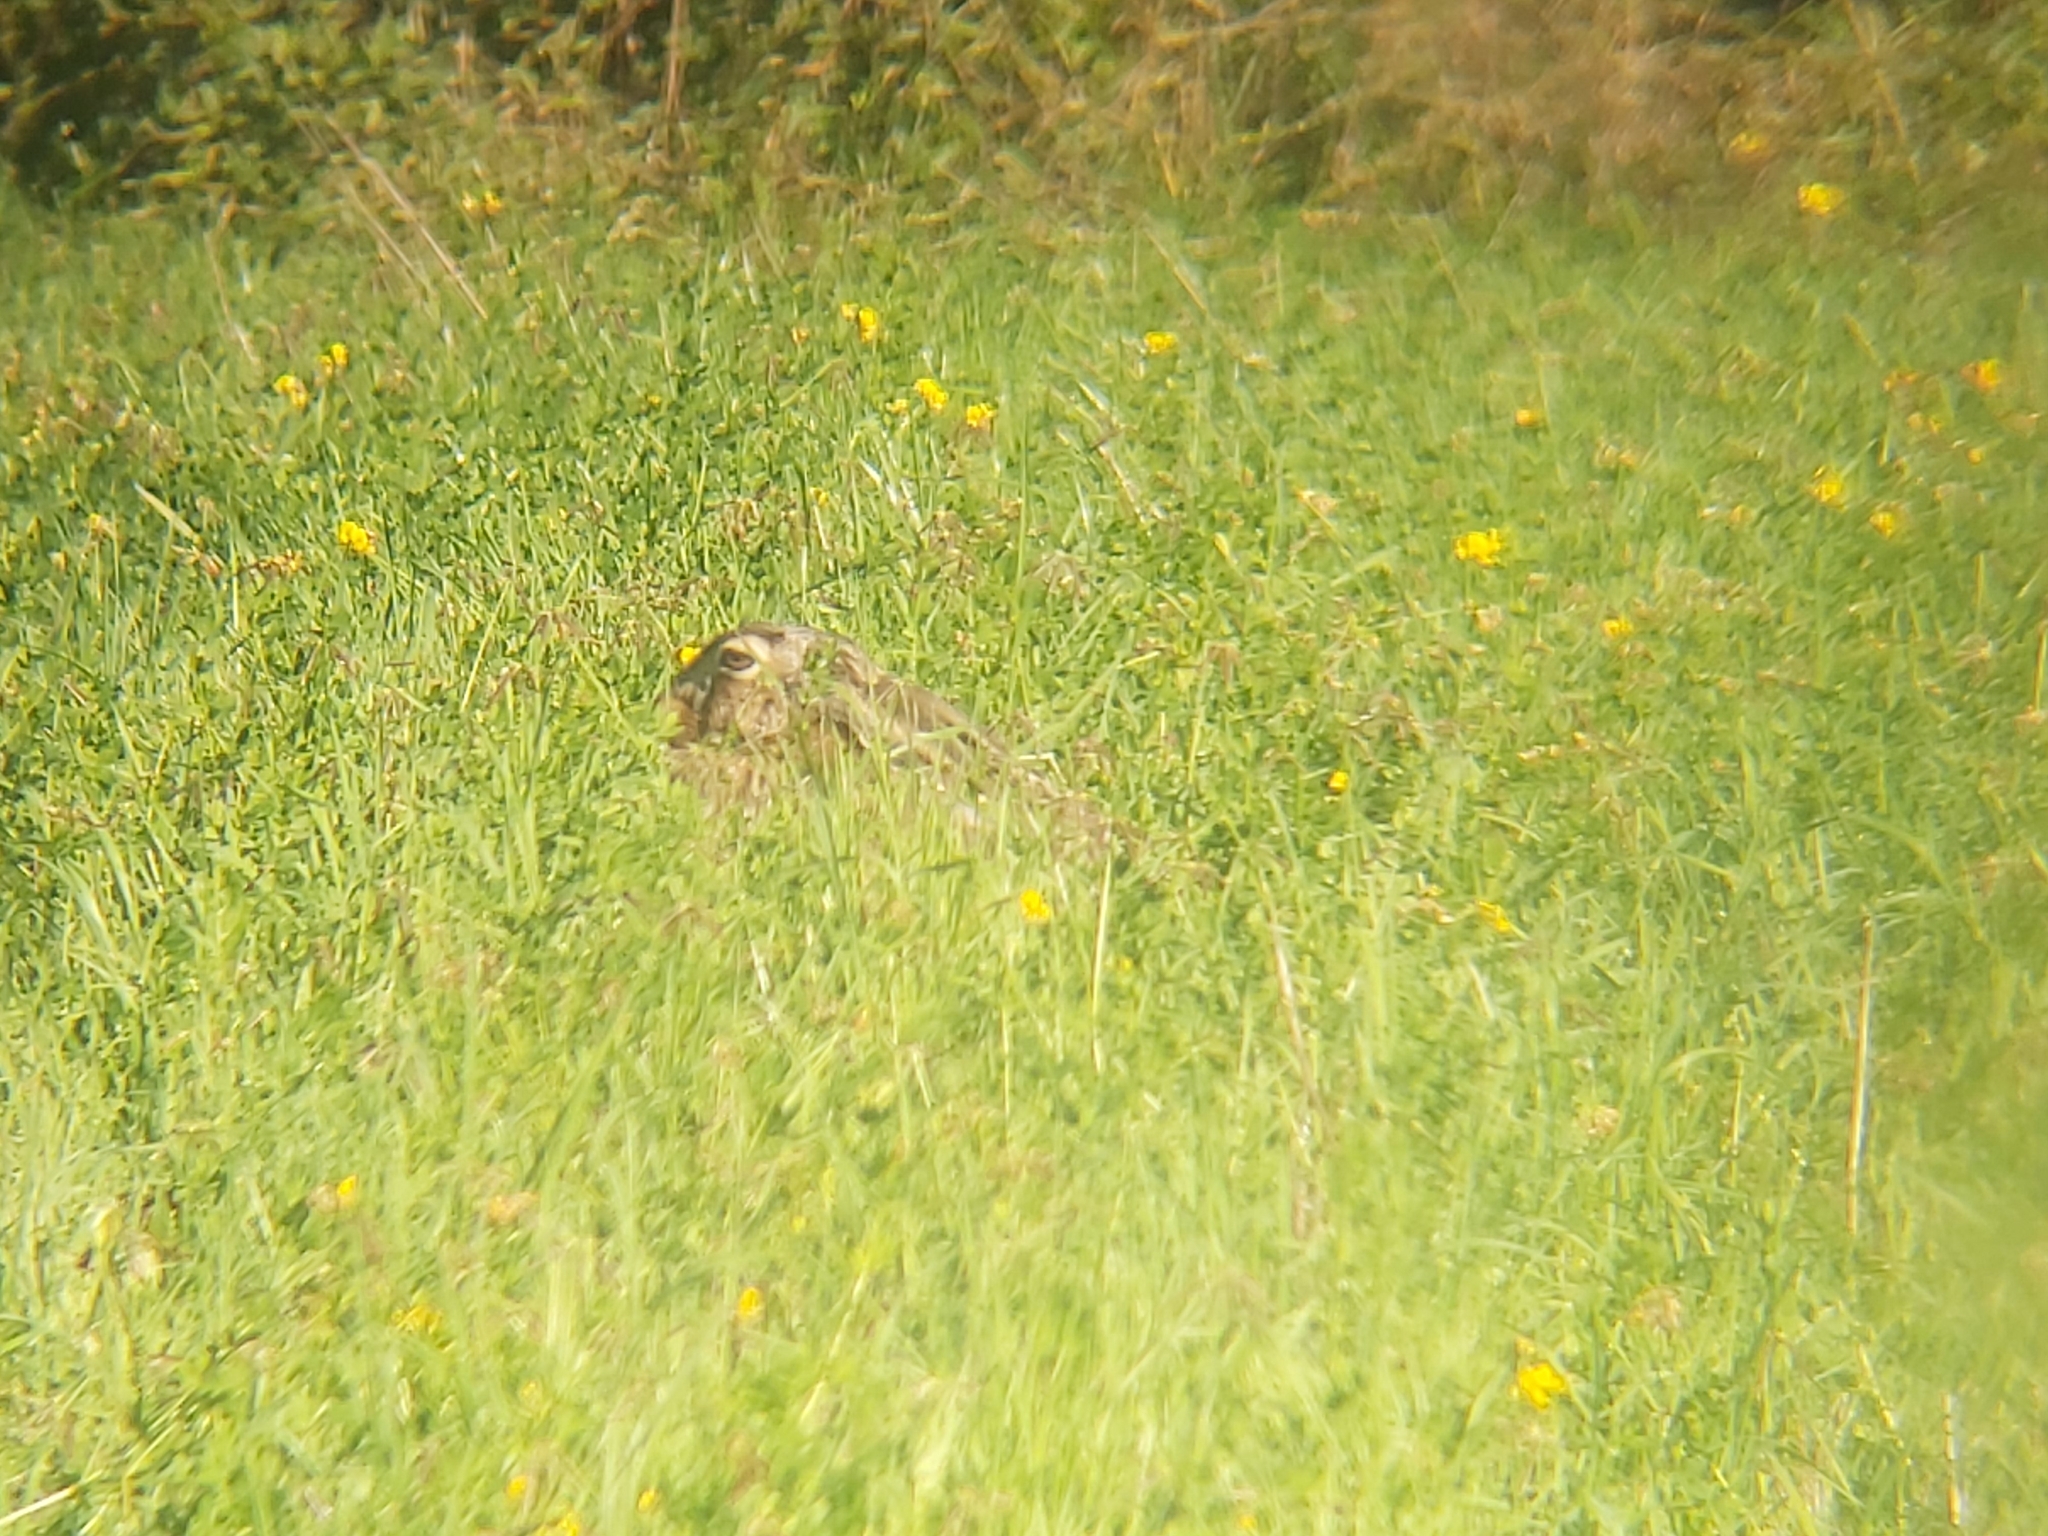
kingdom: Animalia
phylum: Chordata
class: Mammalia
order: Lagomorpha
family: Leporidae
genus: Lepus
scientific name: Lepus europaeus
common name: European hare
